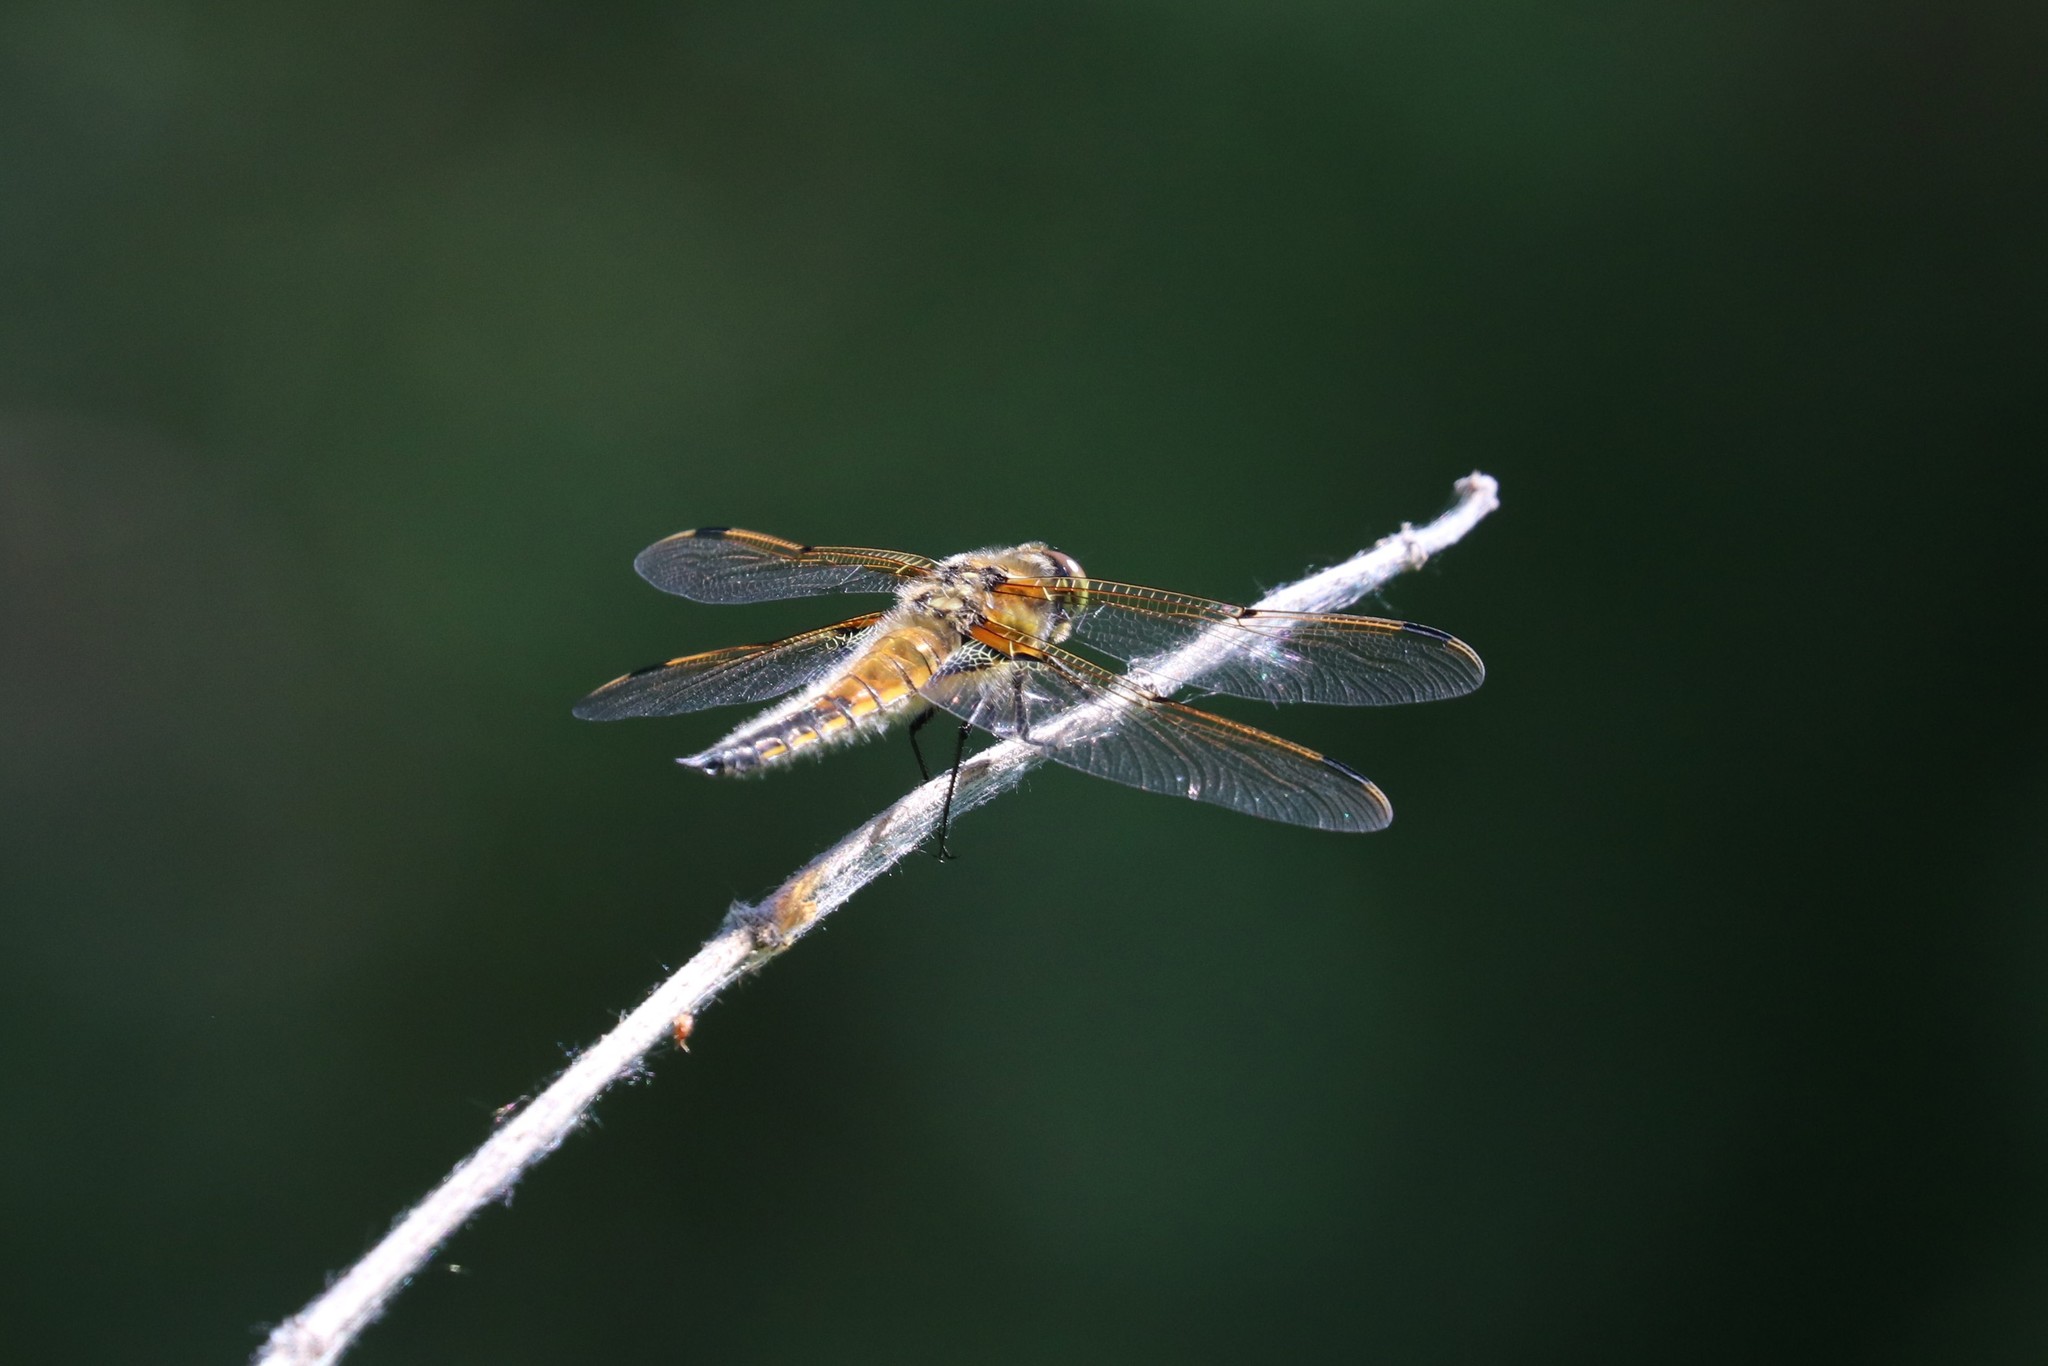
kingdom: Animalia
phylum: Arthropoda
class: Insecta
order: Odonata
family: Libellulidae
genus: Libellula
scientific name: Libellula quadrimaculata
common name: Four-spotted chaser
